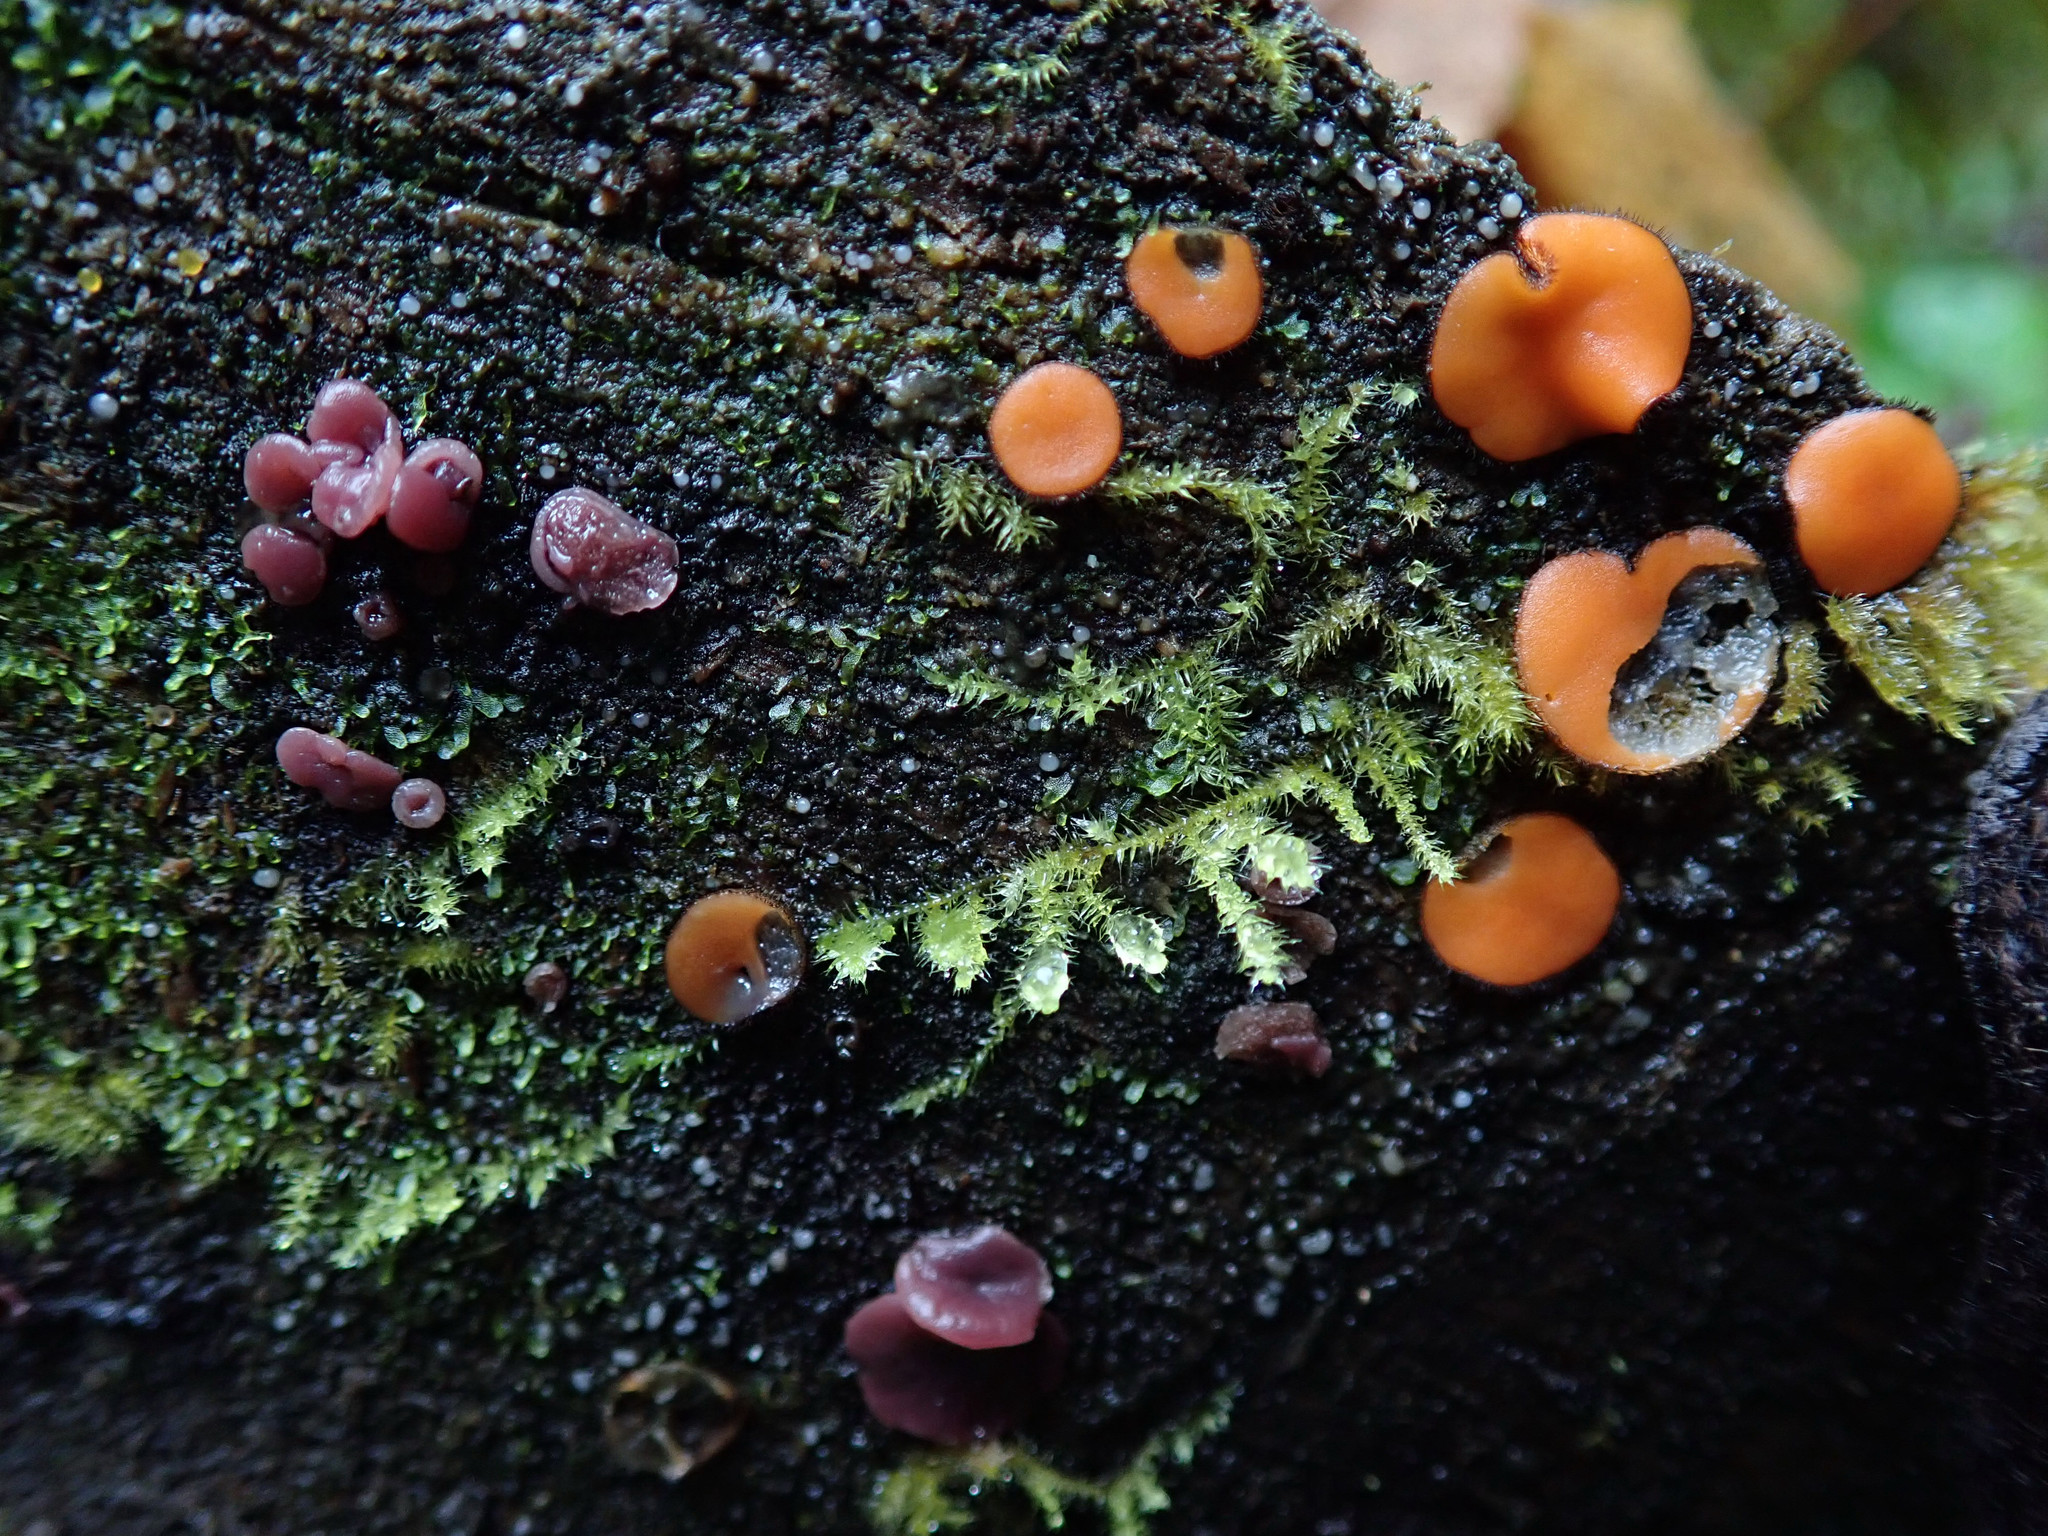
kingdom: Fungi
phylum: Ascomycota
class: Leotiomycetes
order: Helotiales
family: Gelatinodiscaceae
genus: Ascocoryne
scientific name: Ascocoryne sarcoides
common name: Purple jellydisc
